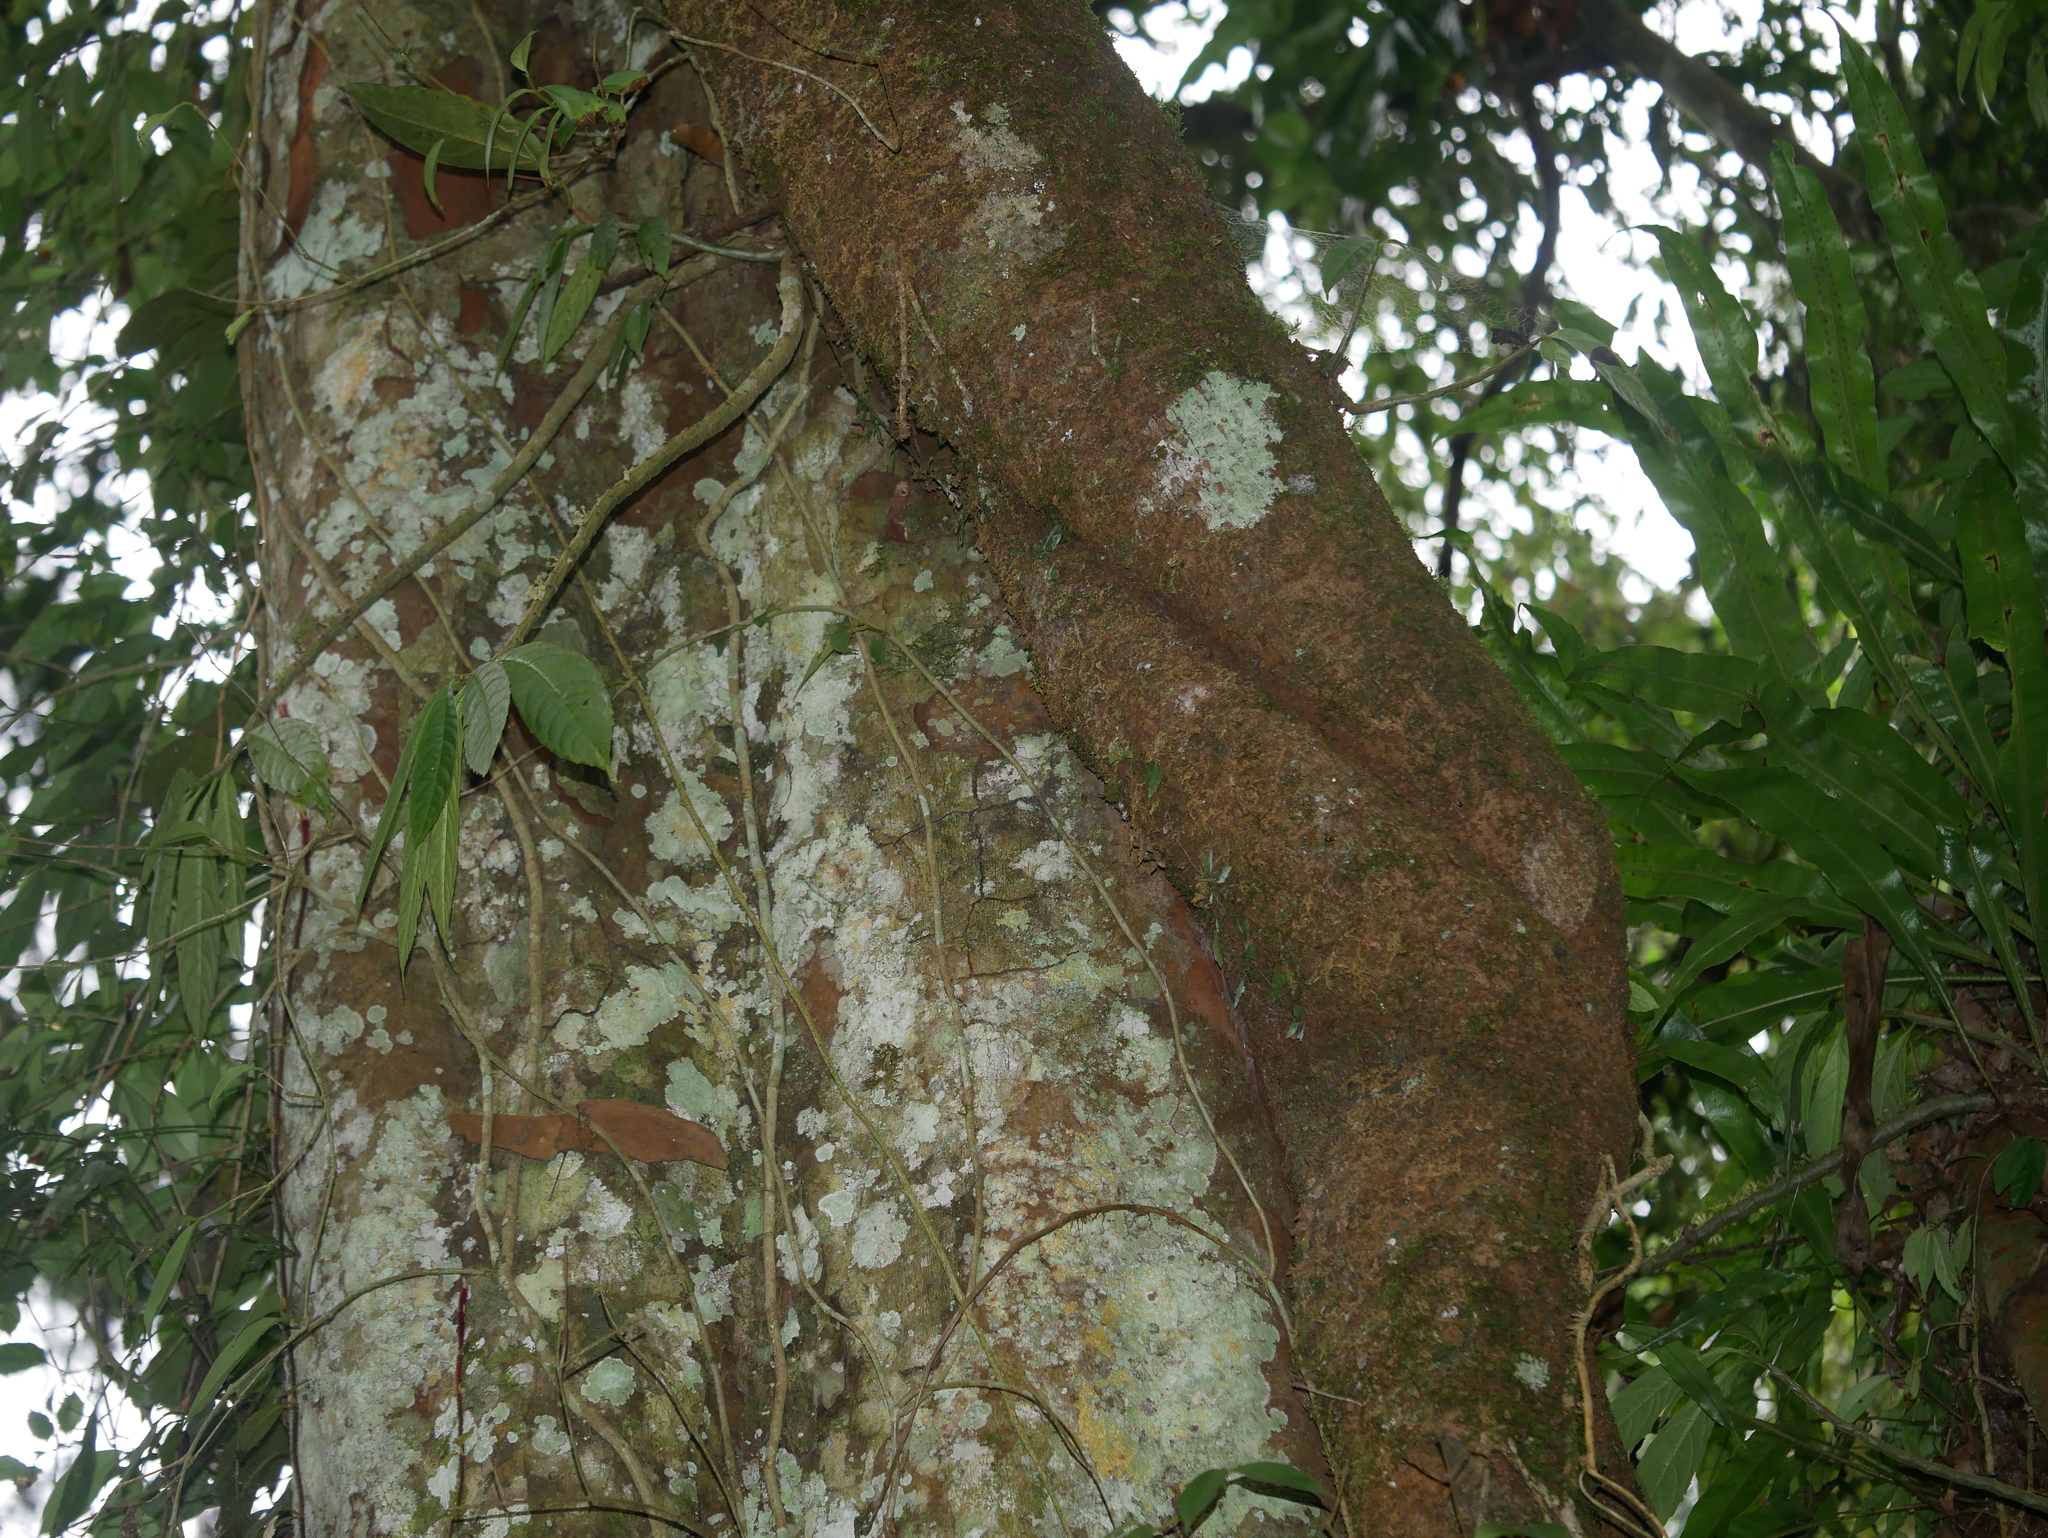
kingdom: Plantae
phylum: Tracheophyta
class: Magnoliopsida
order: Cornales
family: Hydrangeaceae
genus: Hydrangea
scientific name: Hydrangea integrifolia
